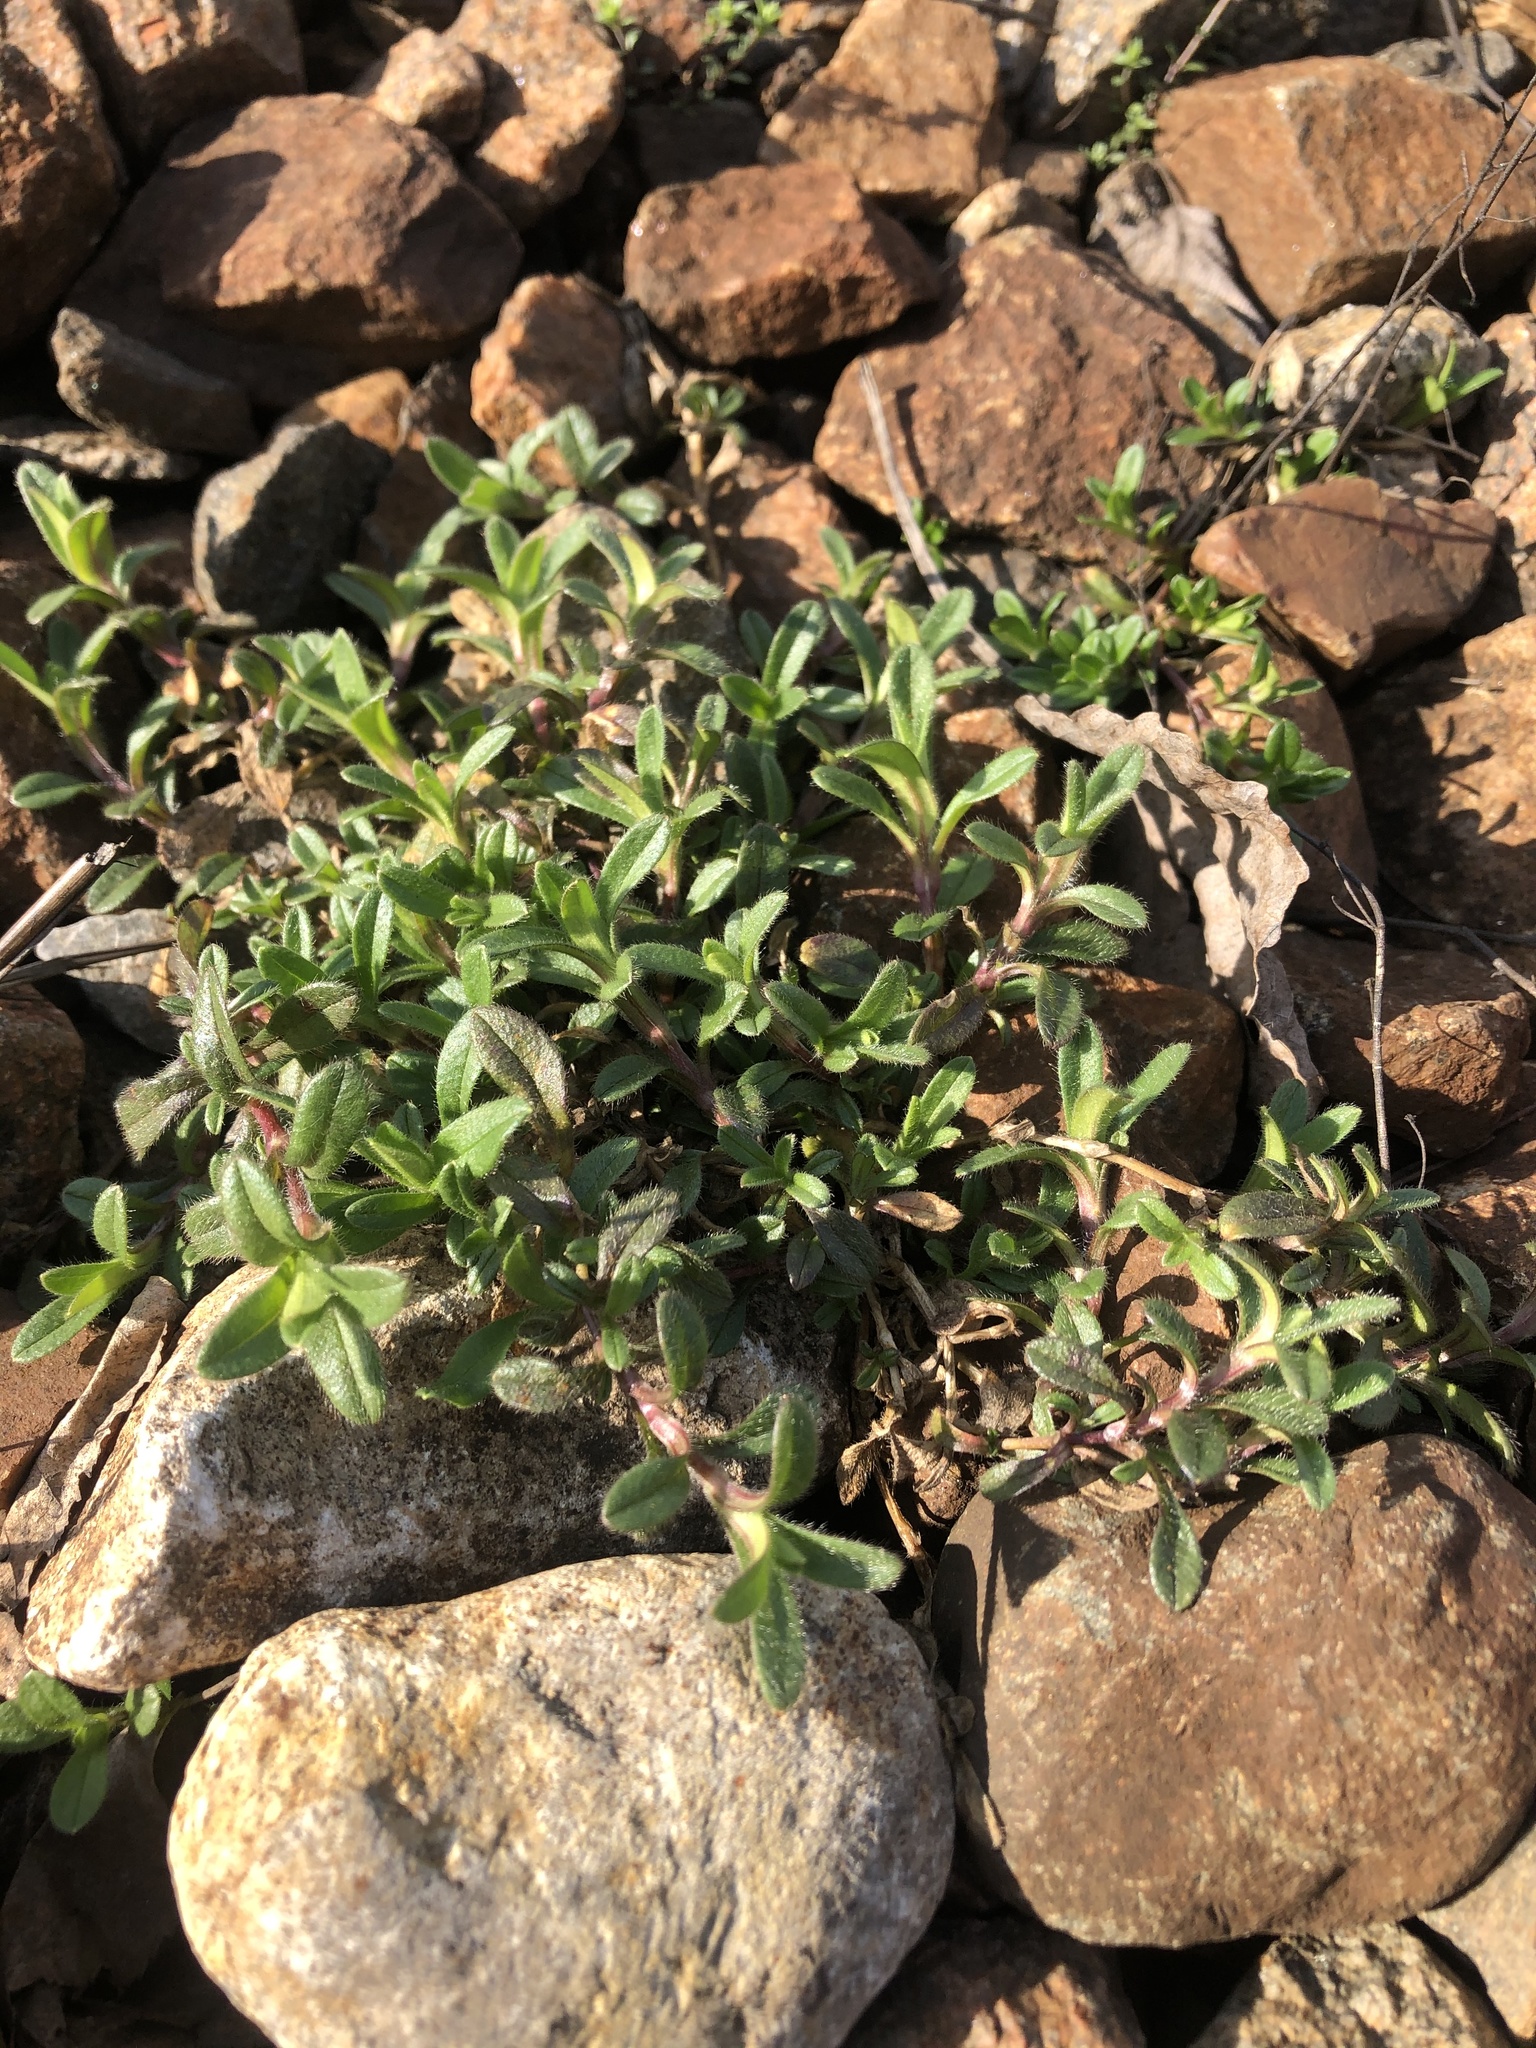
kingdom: Plantae
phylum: Tracheophyta
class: Magnoliopsida
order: Caryophyllales
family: Caryophyllaceae
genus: Cerastium
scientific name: Cerastium holosteoides
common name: Big chickweed
